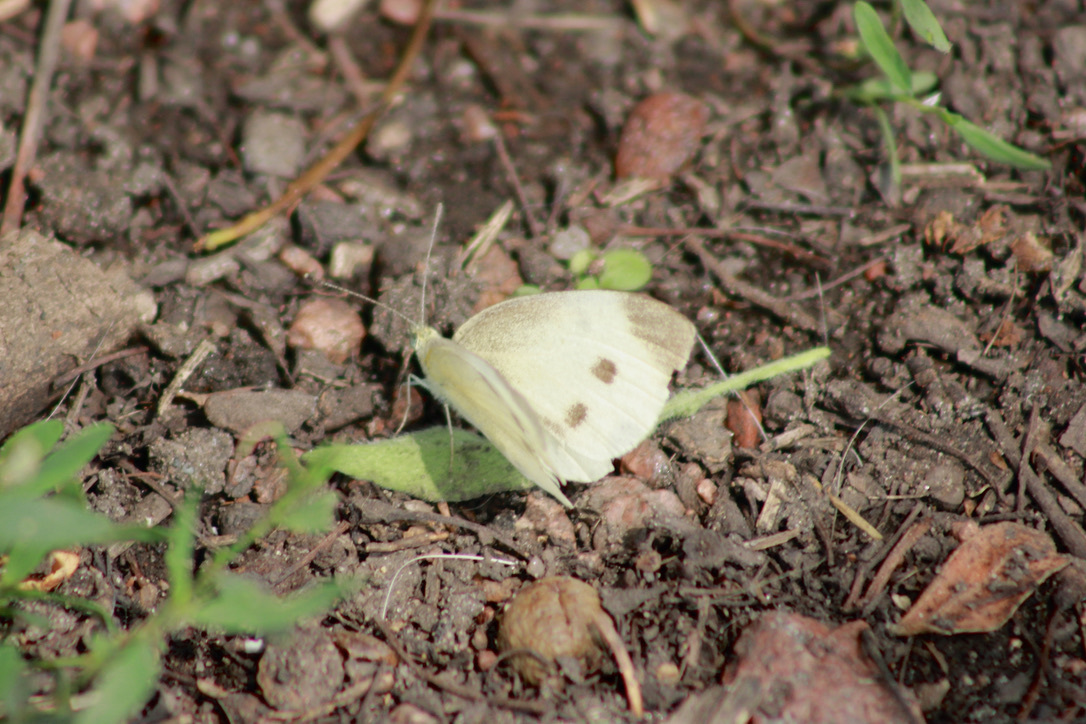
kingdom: Animalia
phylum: Arthropoda
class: Insecta
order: Lepidoptera
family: Pieridae
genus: Pieris
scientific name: Pieris rapae
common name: Small white
